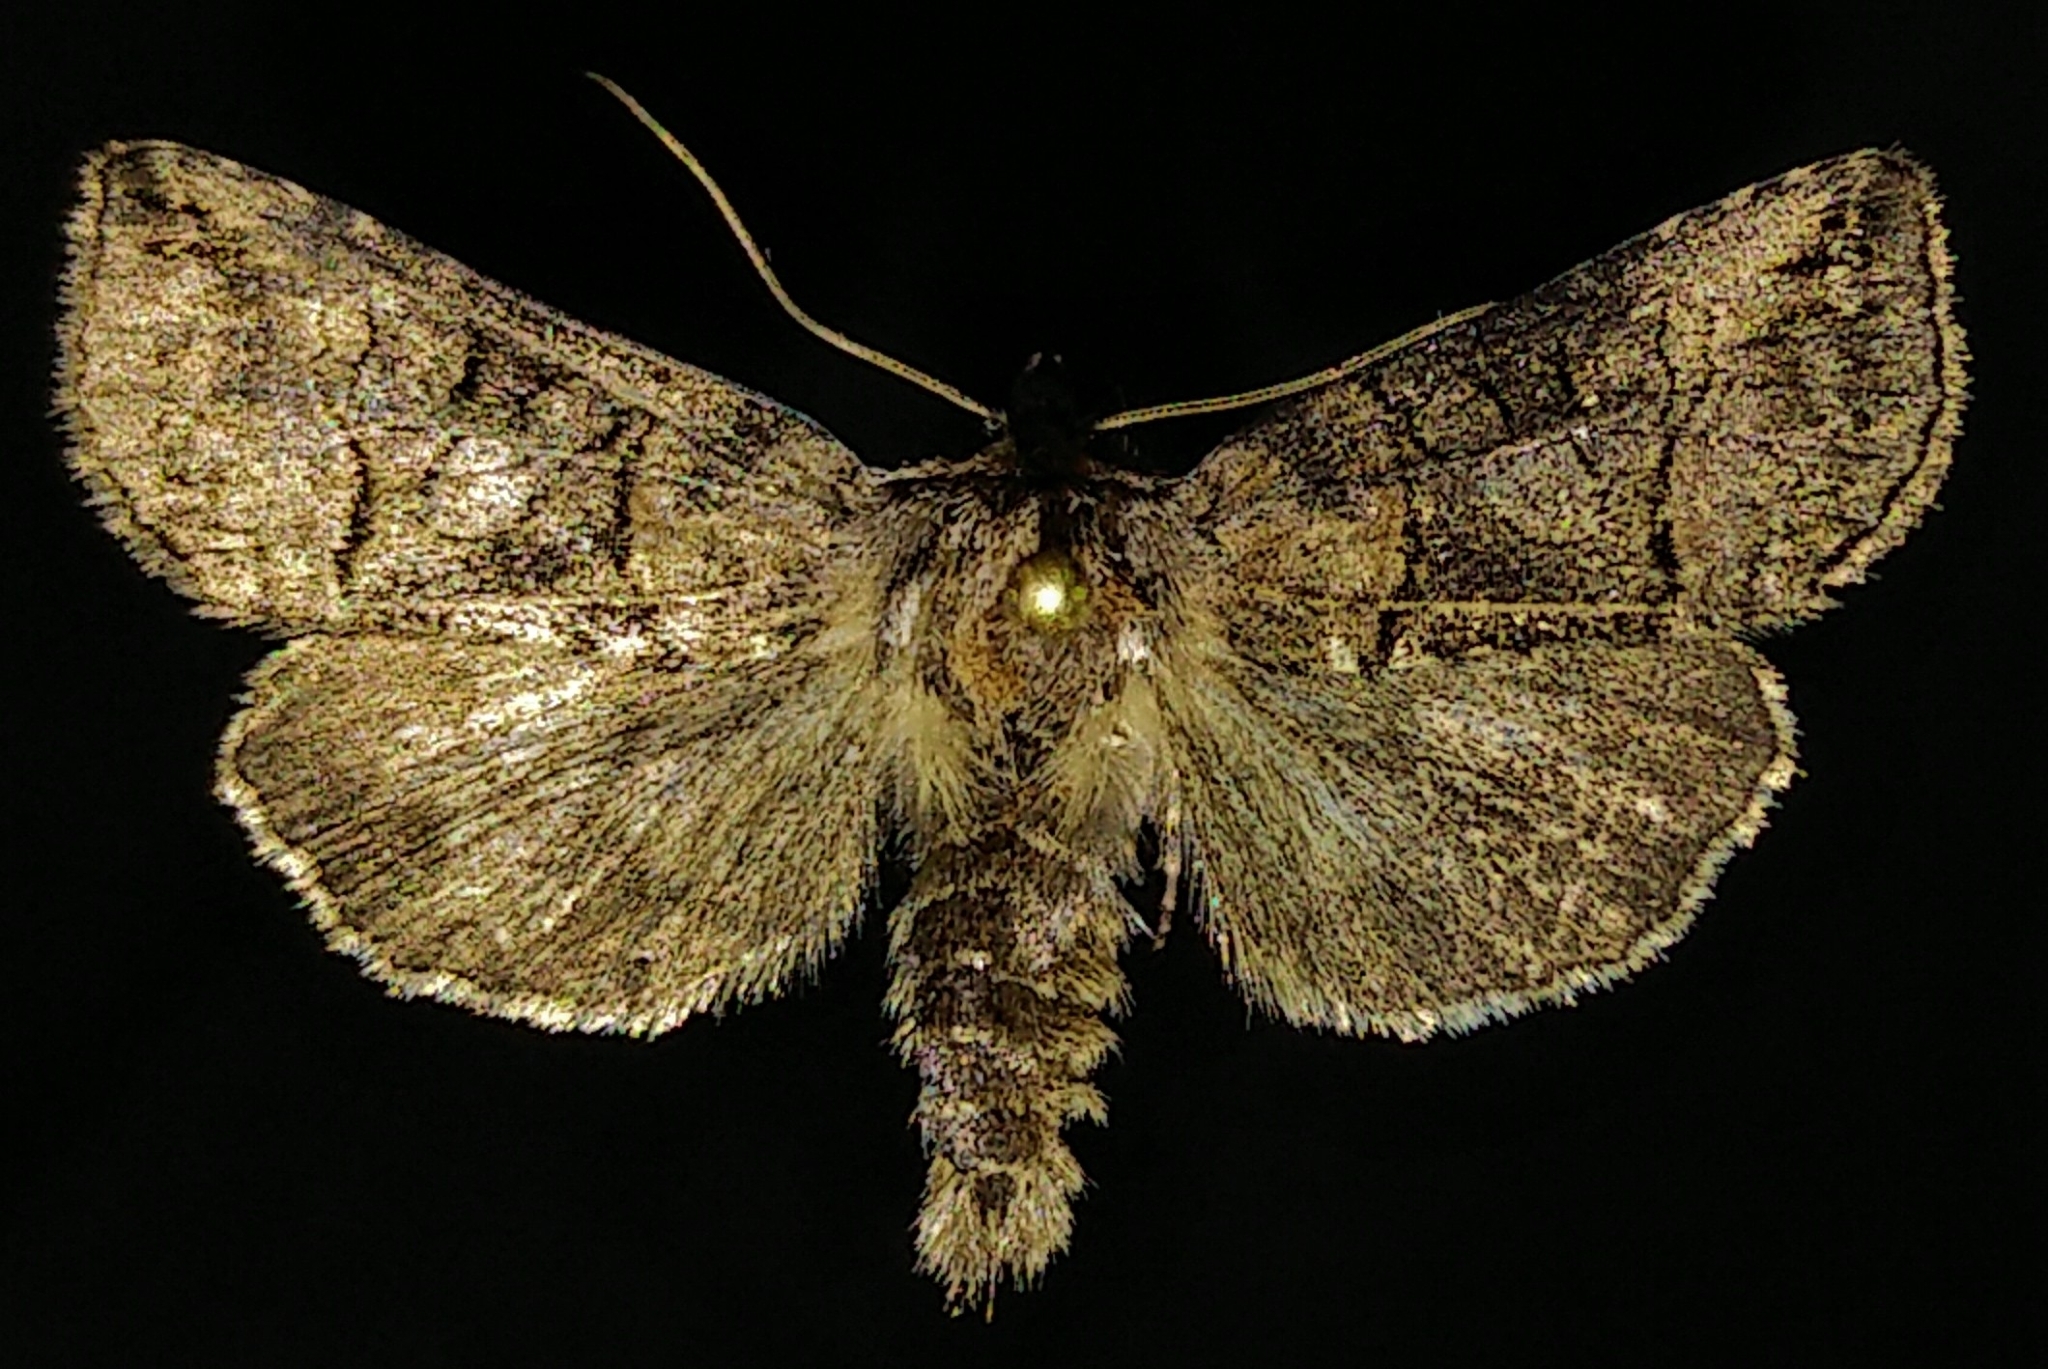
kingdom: Animalia
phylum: Arthropoda
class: Insecta
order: Lepidoptera
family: Noctuidae
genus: Abrostola
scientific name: Abrostola urentis
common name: Spectacled nettle moth
